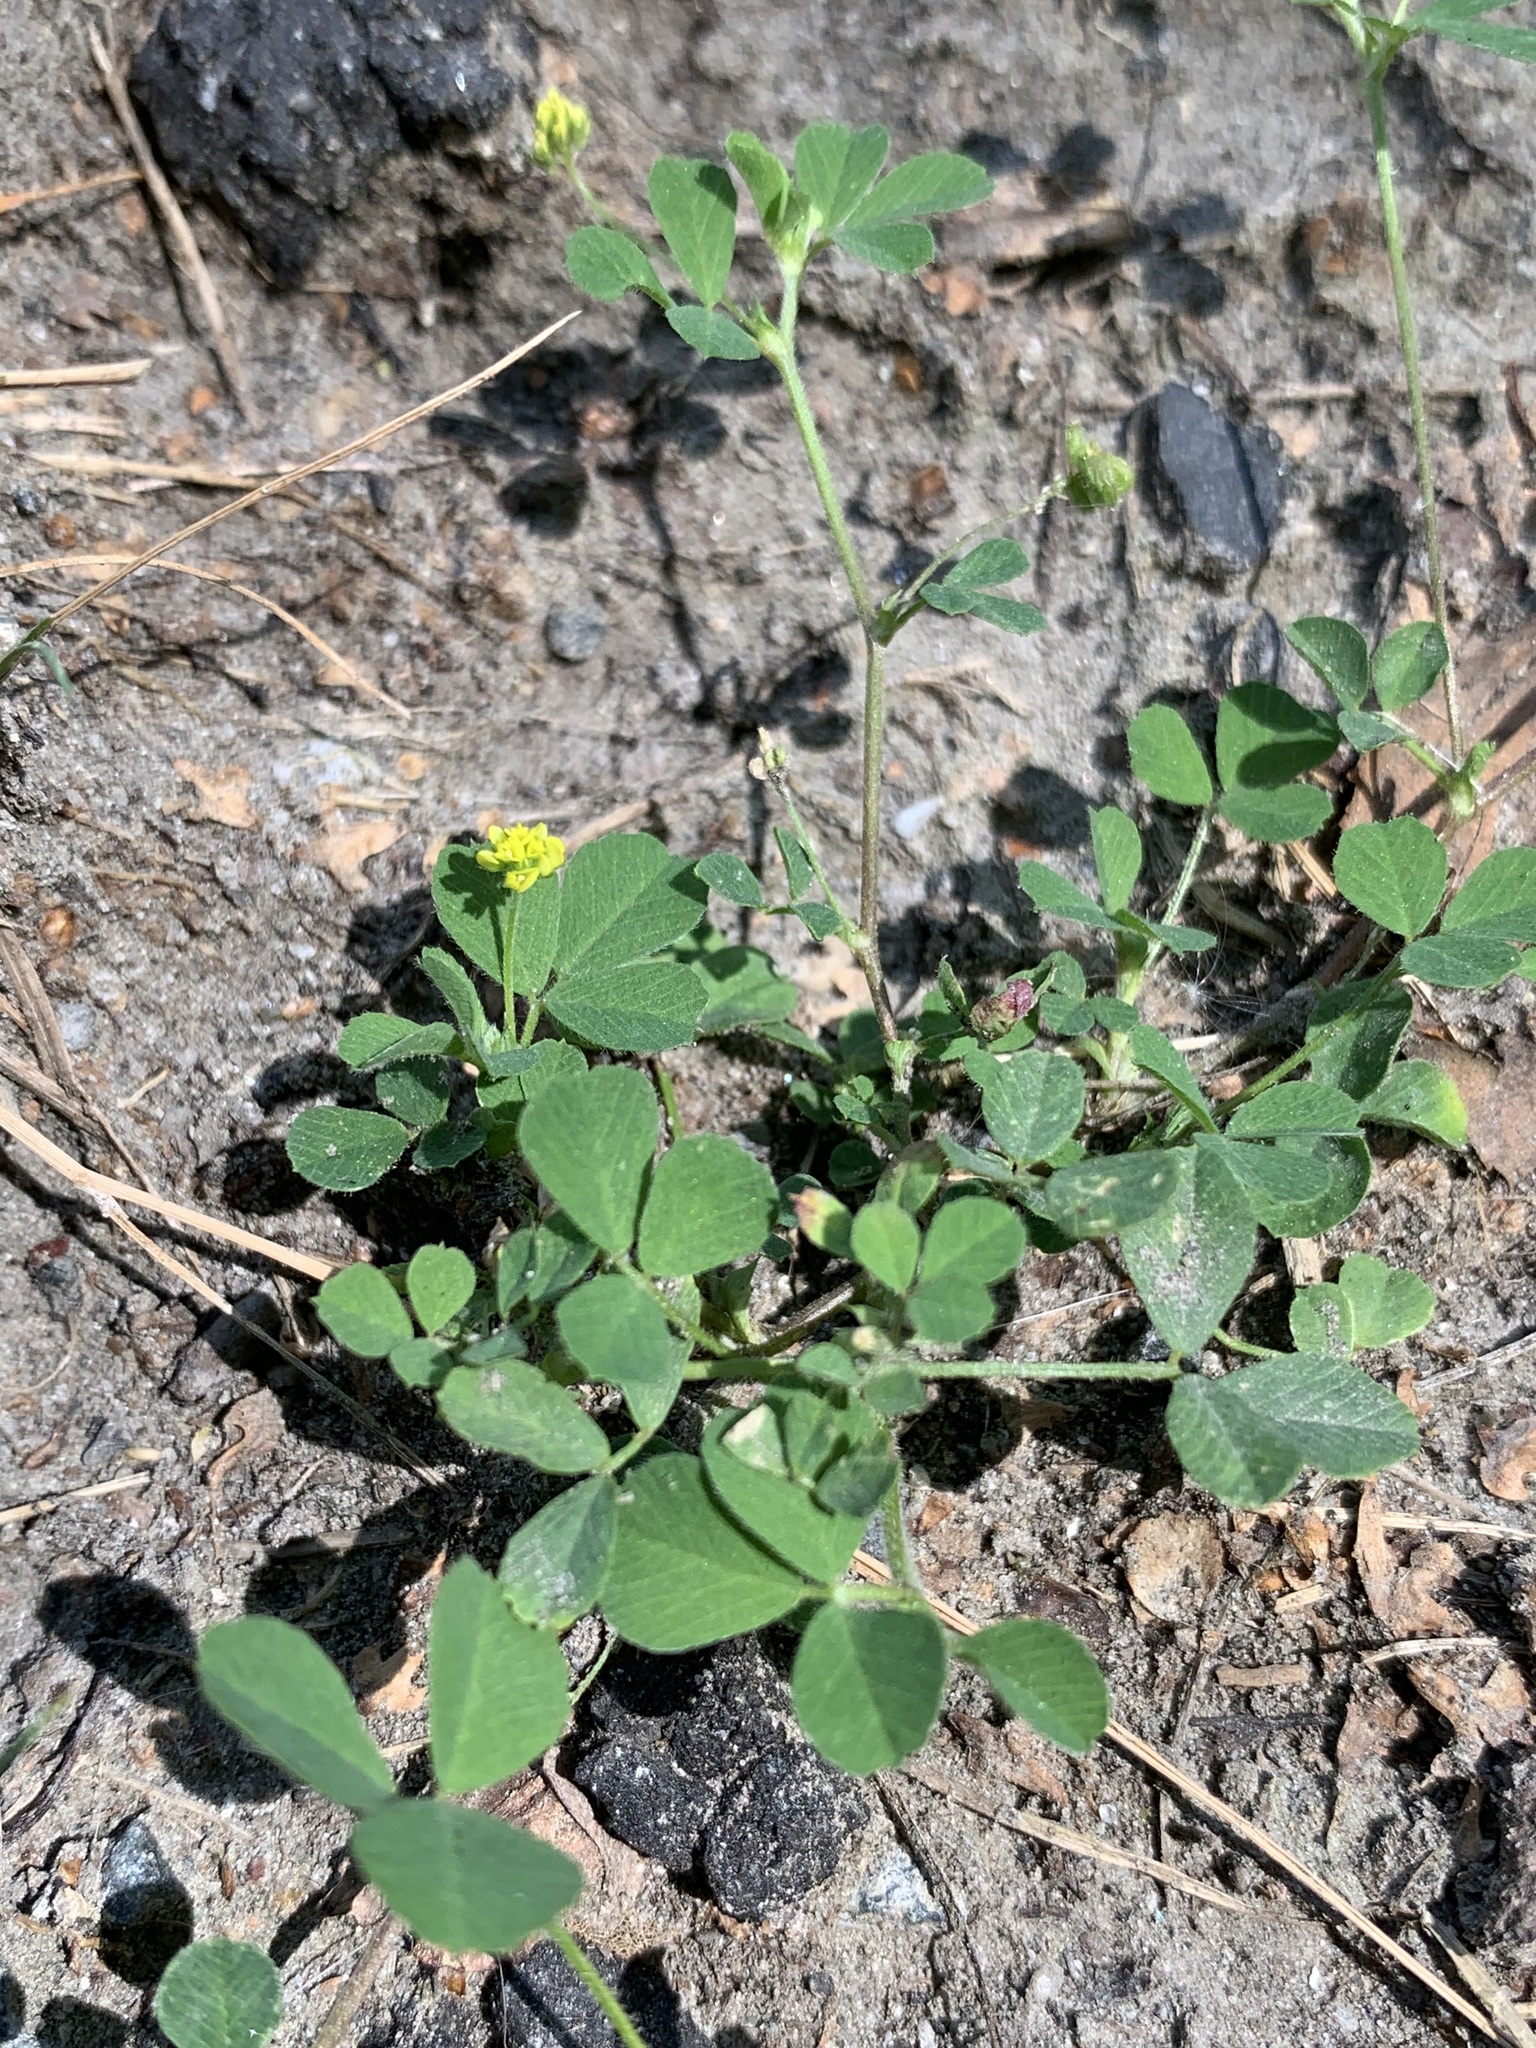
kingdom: Plantae
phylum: Tracheophyta
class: Magnoliopsida
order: Fabales
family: Fabaceae
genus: Medicago
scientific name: Medicago lupulina
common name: Black medick
